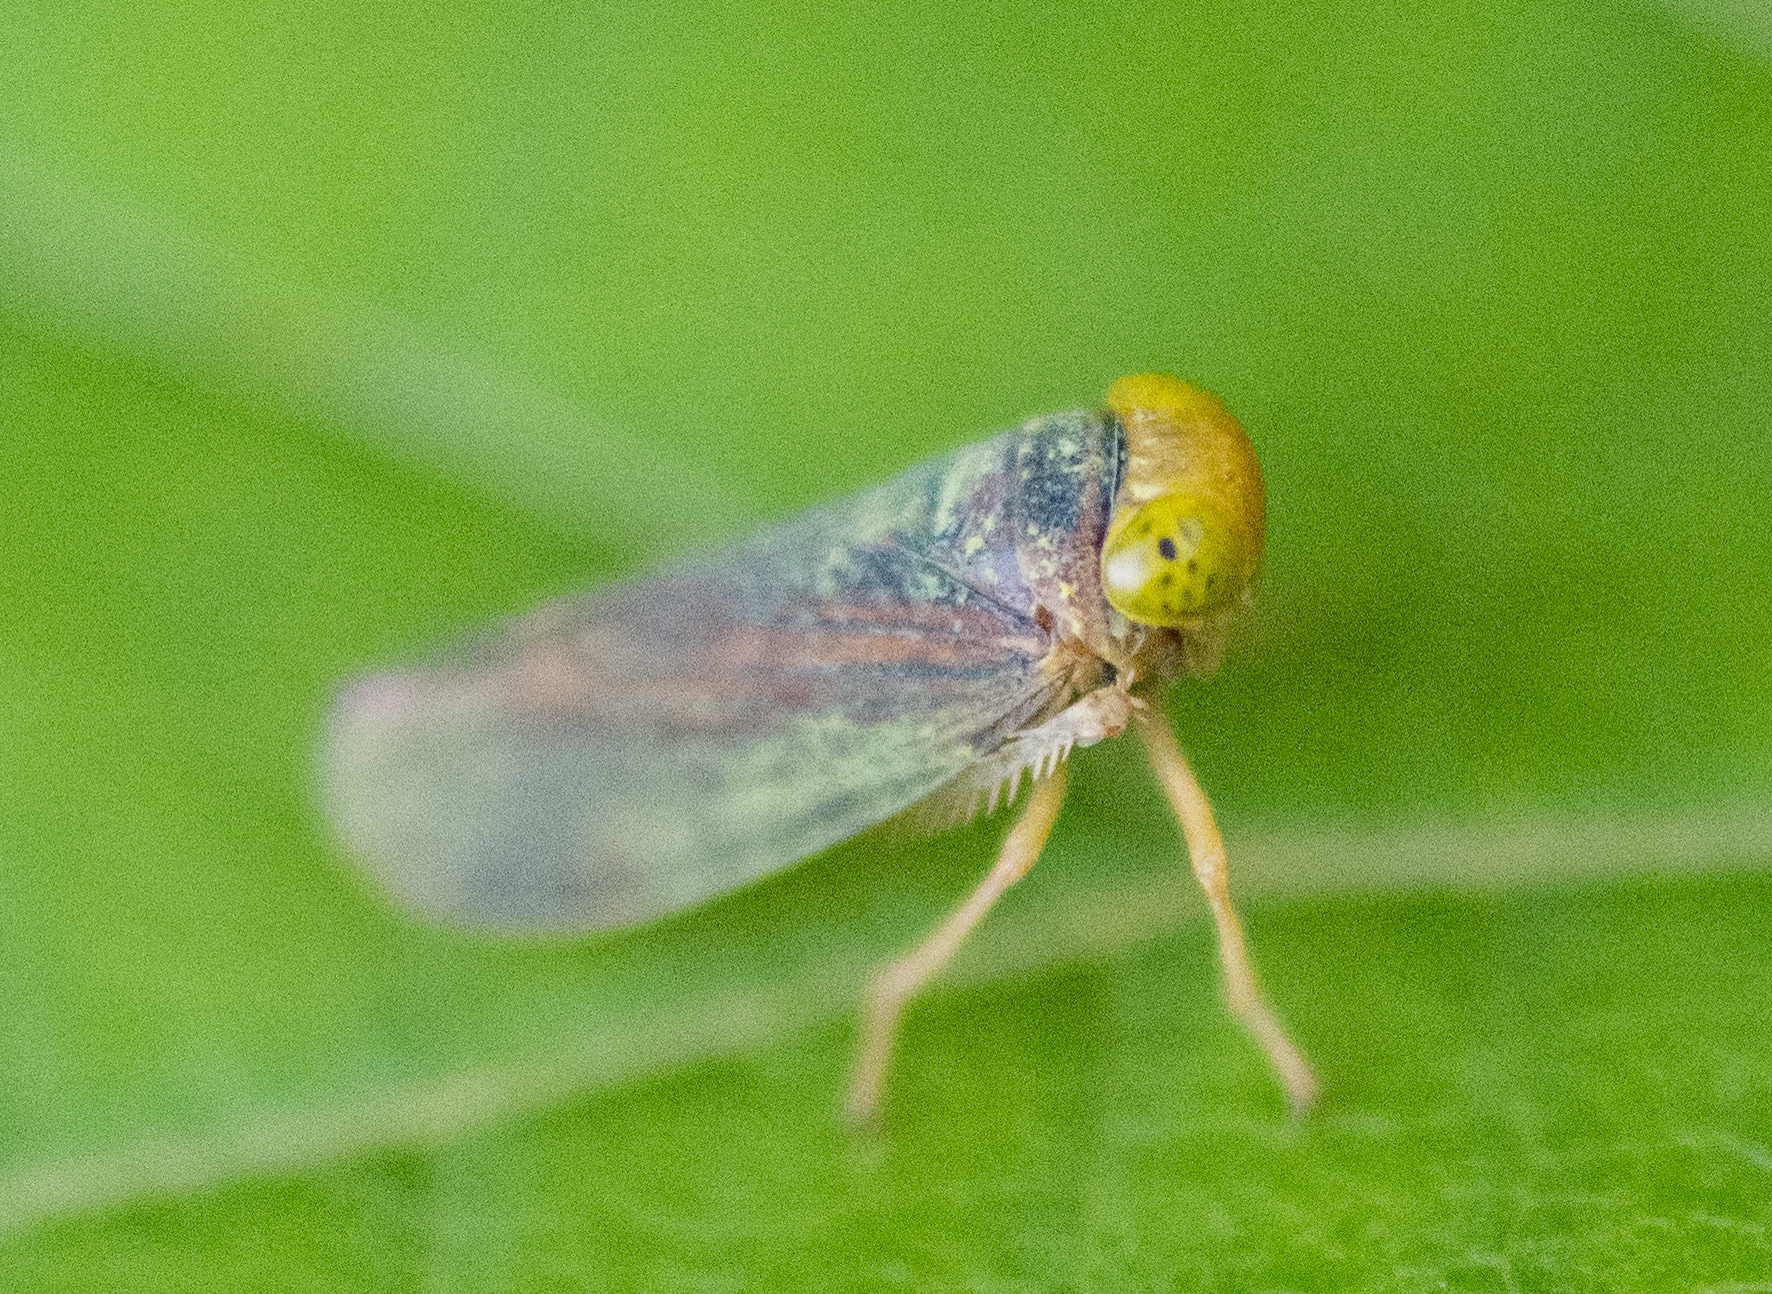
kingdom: Animalia
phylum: Arthropoda
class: Insecta
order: Hemiptera
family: Cicadellidae
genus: Jikradia
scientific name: Jikradia olitoria
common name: Coppery leafhopper
